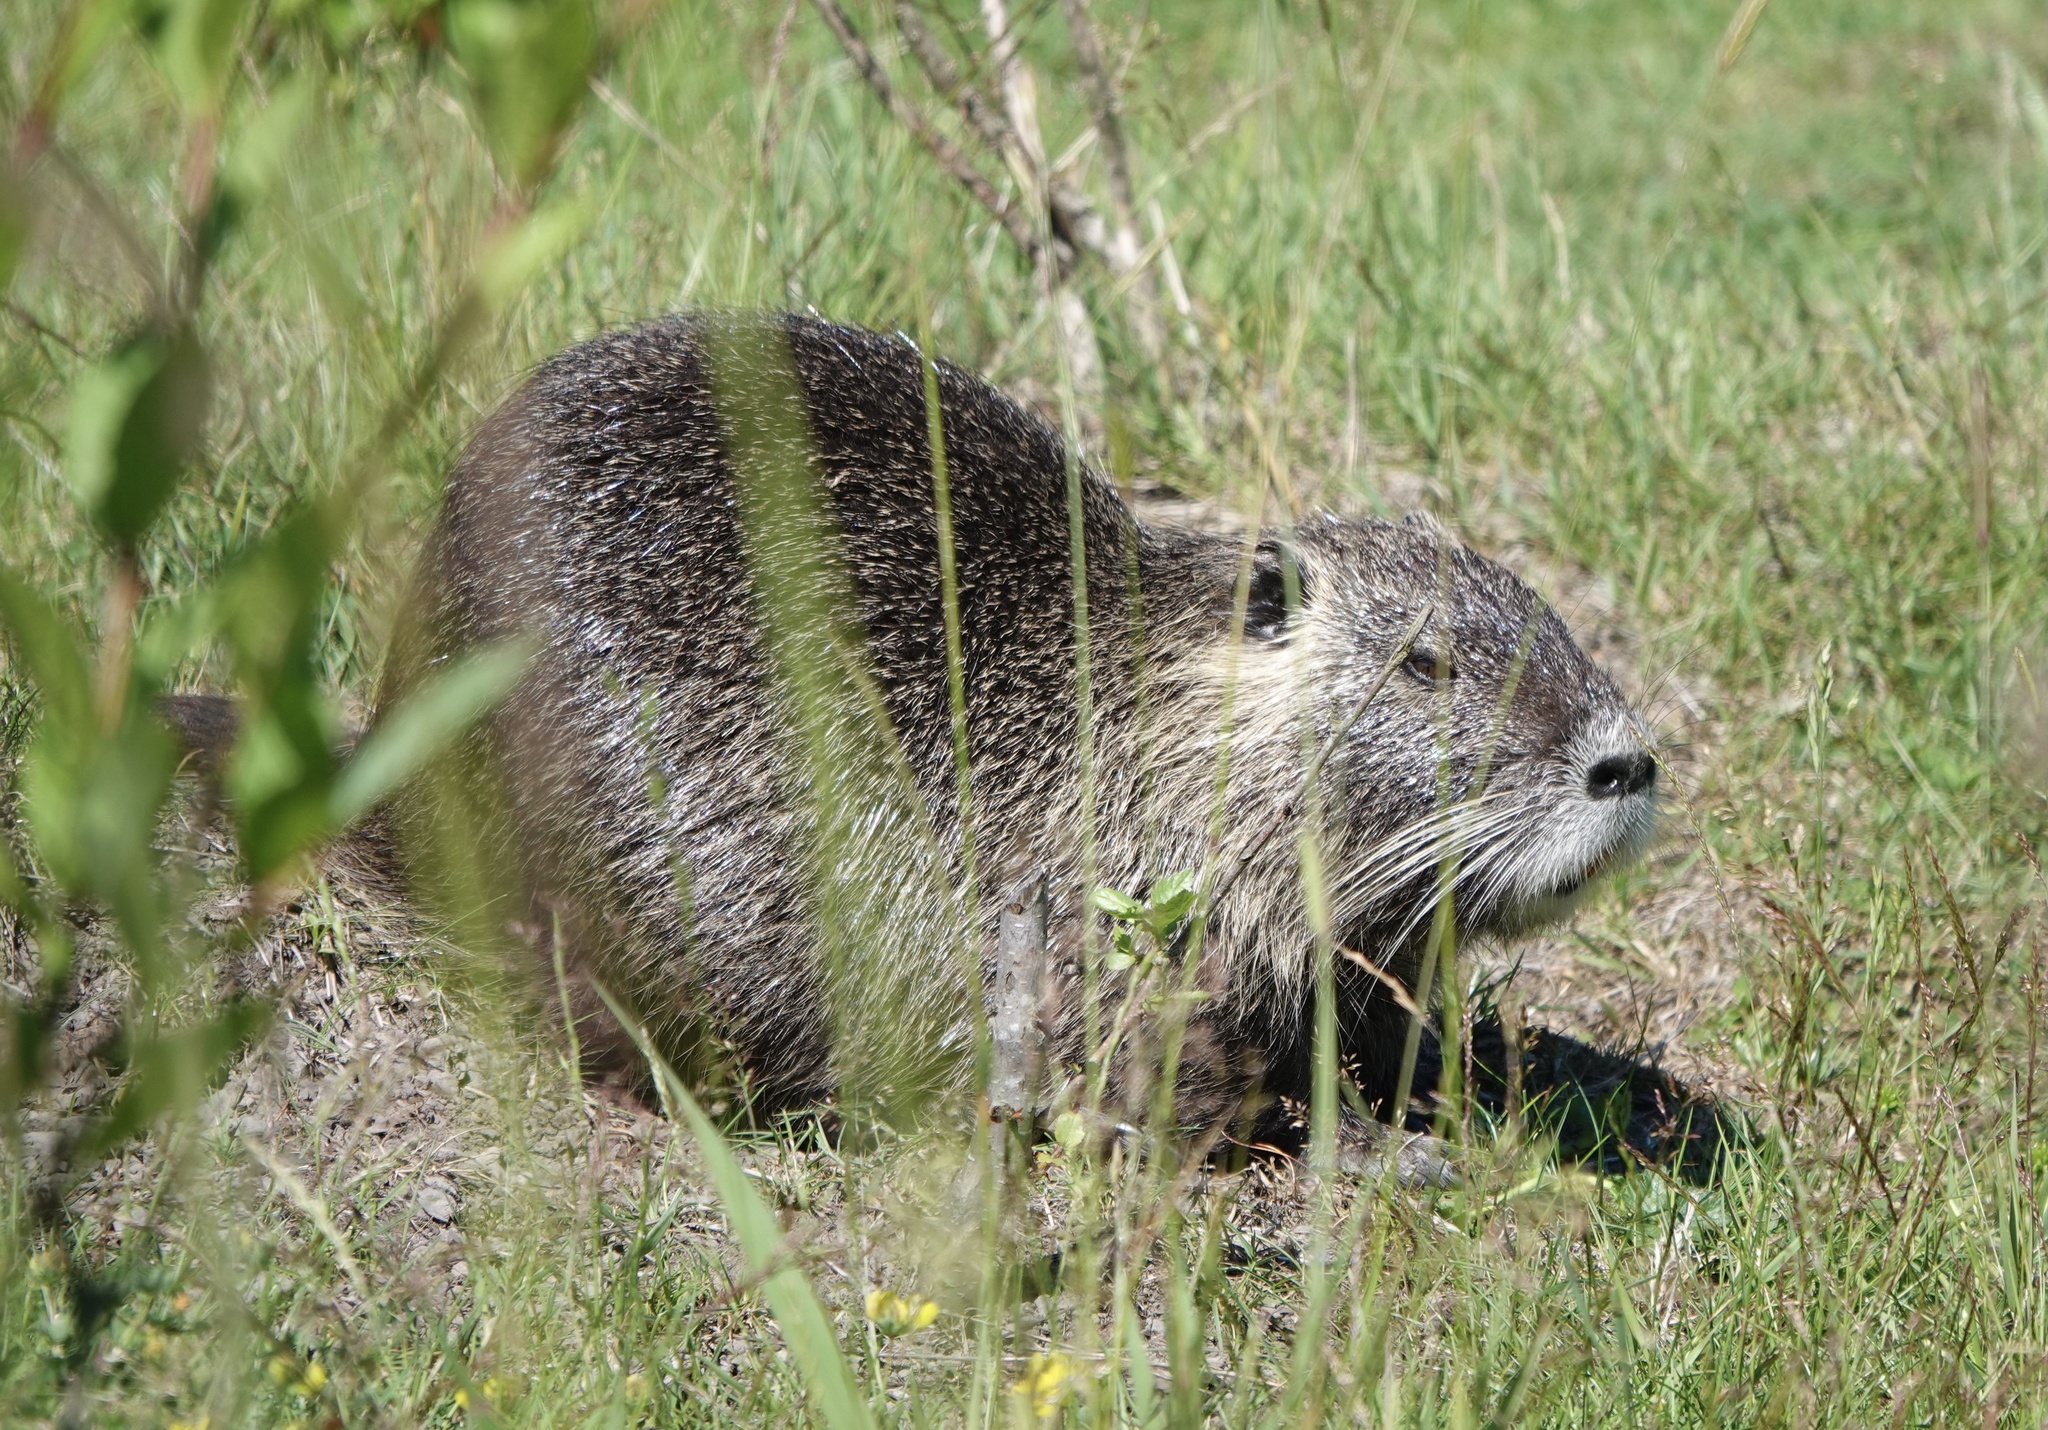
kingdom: Animalia
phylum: Chordata
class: Mammalia
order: Rodentia
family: Myocastoridae
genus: Myocastor
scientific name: Myocastor coypus
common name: Coypu
